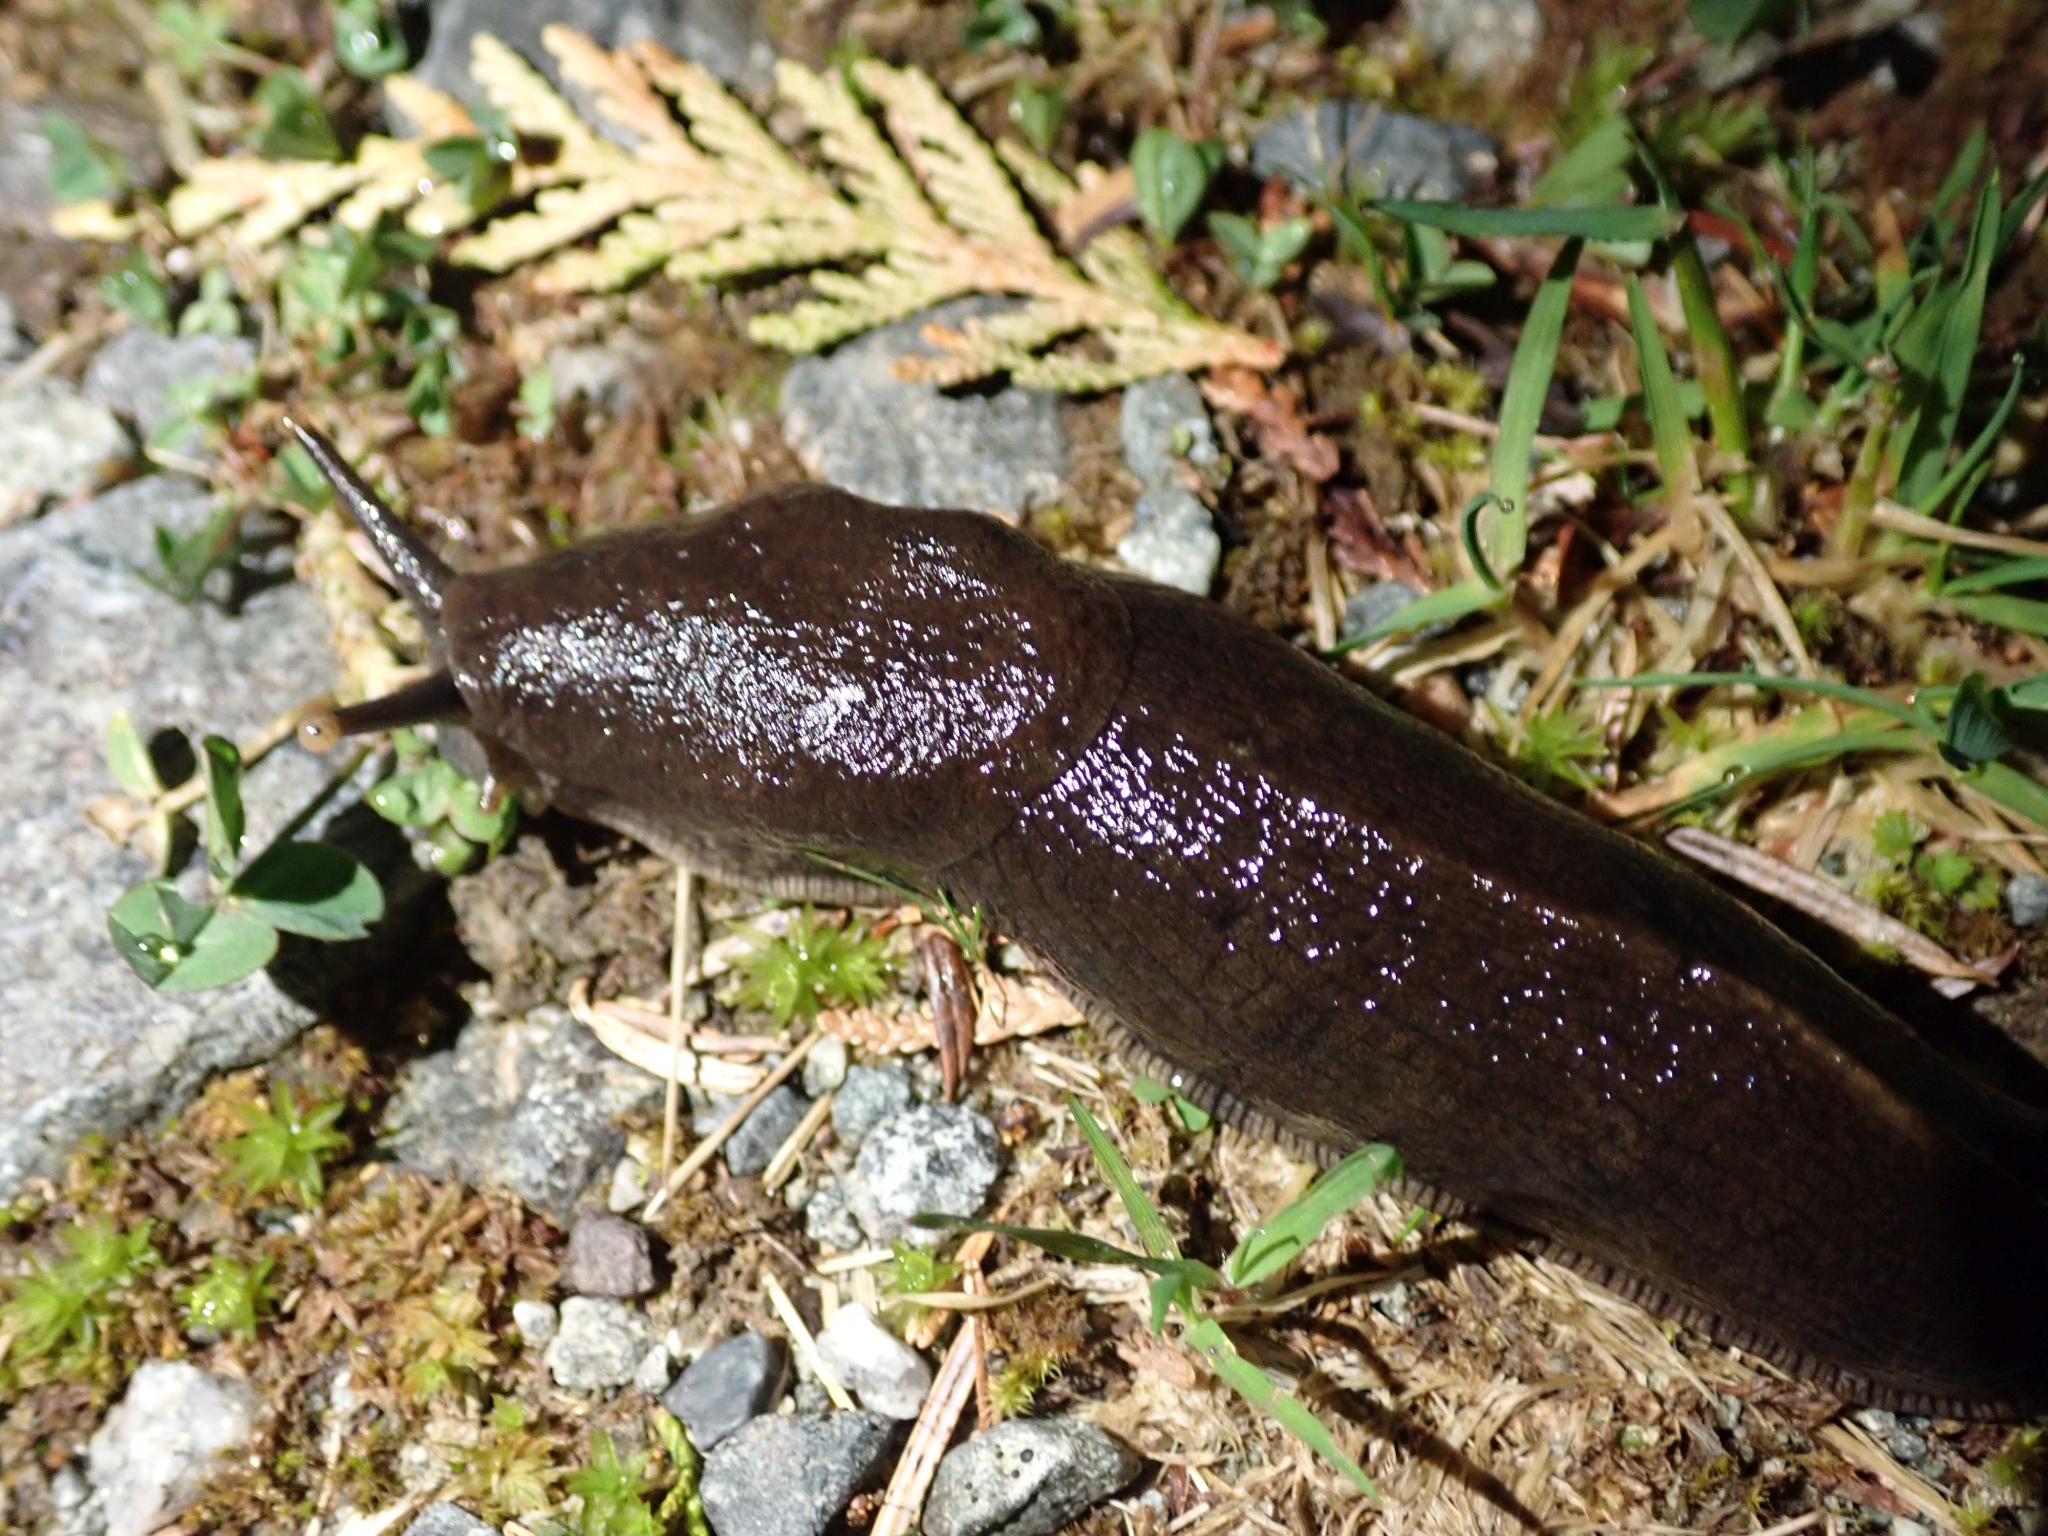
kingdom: Animalia
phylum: Mollusca
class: Gastropoda
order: Stylommatophora
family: Ariolimacidae
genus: Ariolimax
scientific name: Ariolimax columbianus
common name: Pacific banana slug
